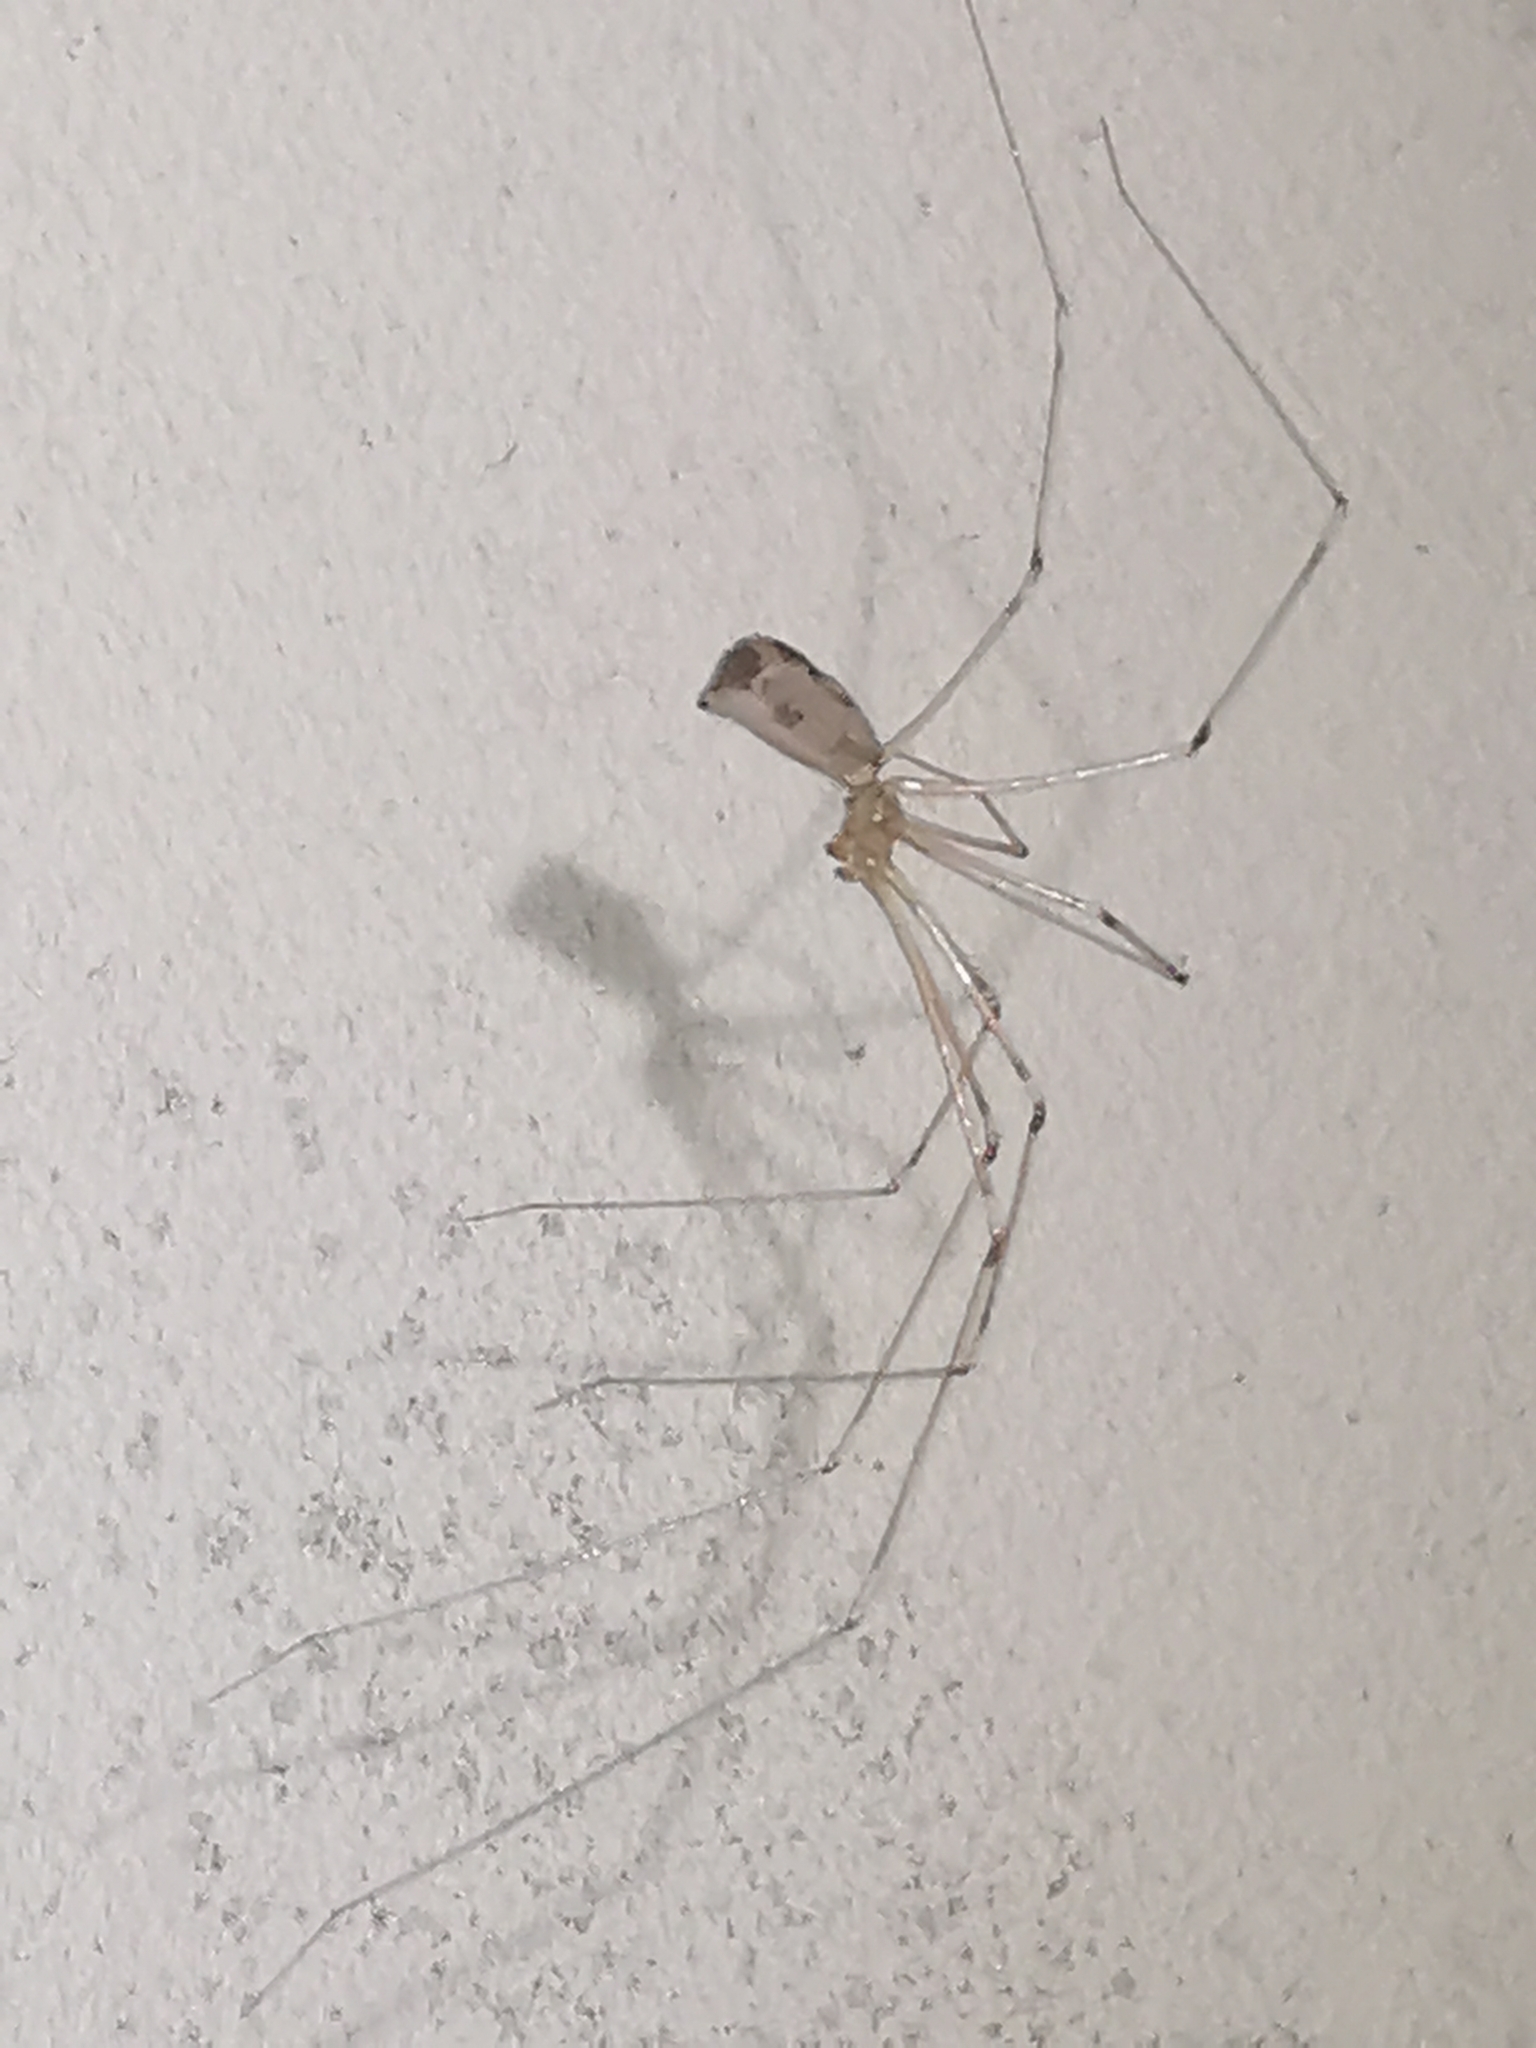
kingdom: Animalia
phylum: Arthropoda
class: Arachnida
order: Araneae
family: Pholcidae
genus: Pholcus
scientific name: Pholcus phalangioides
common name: Longbodied cellar spider
